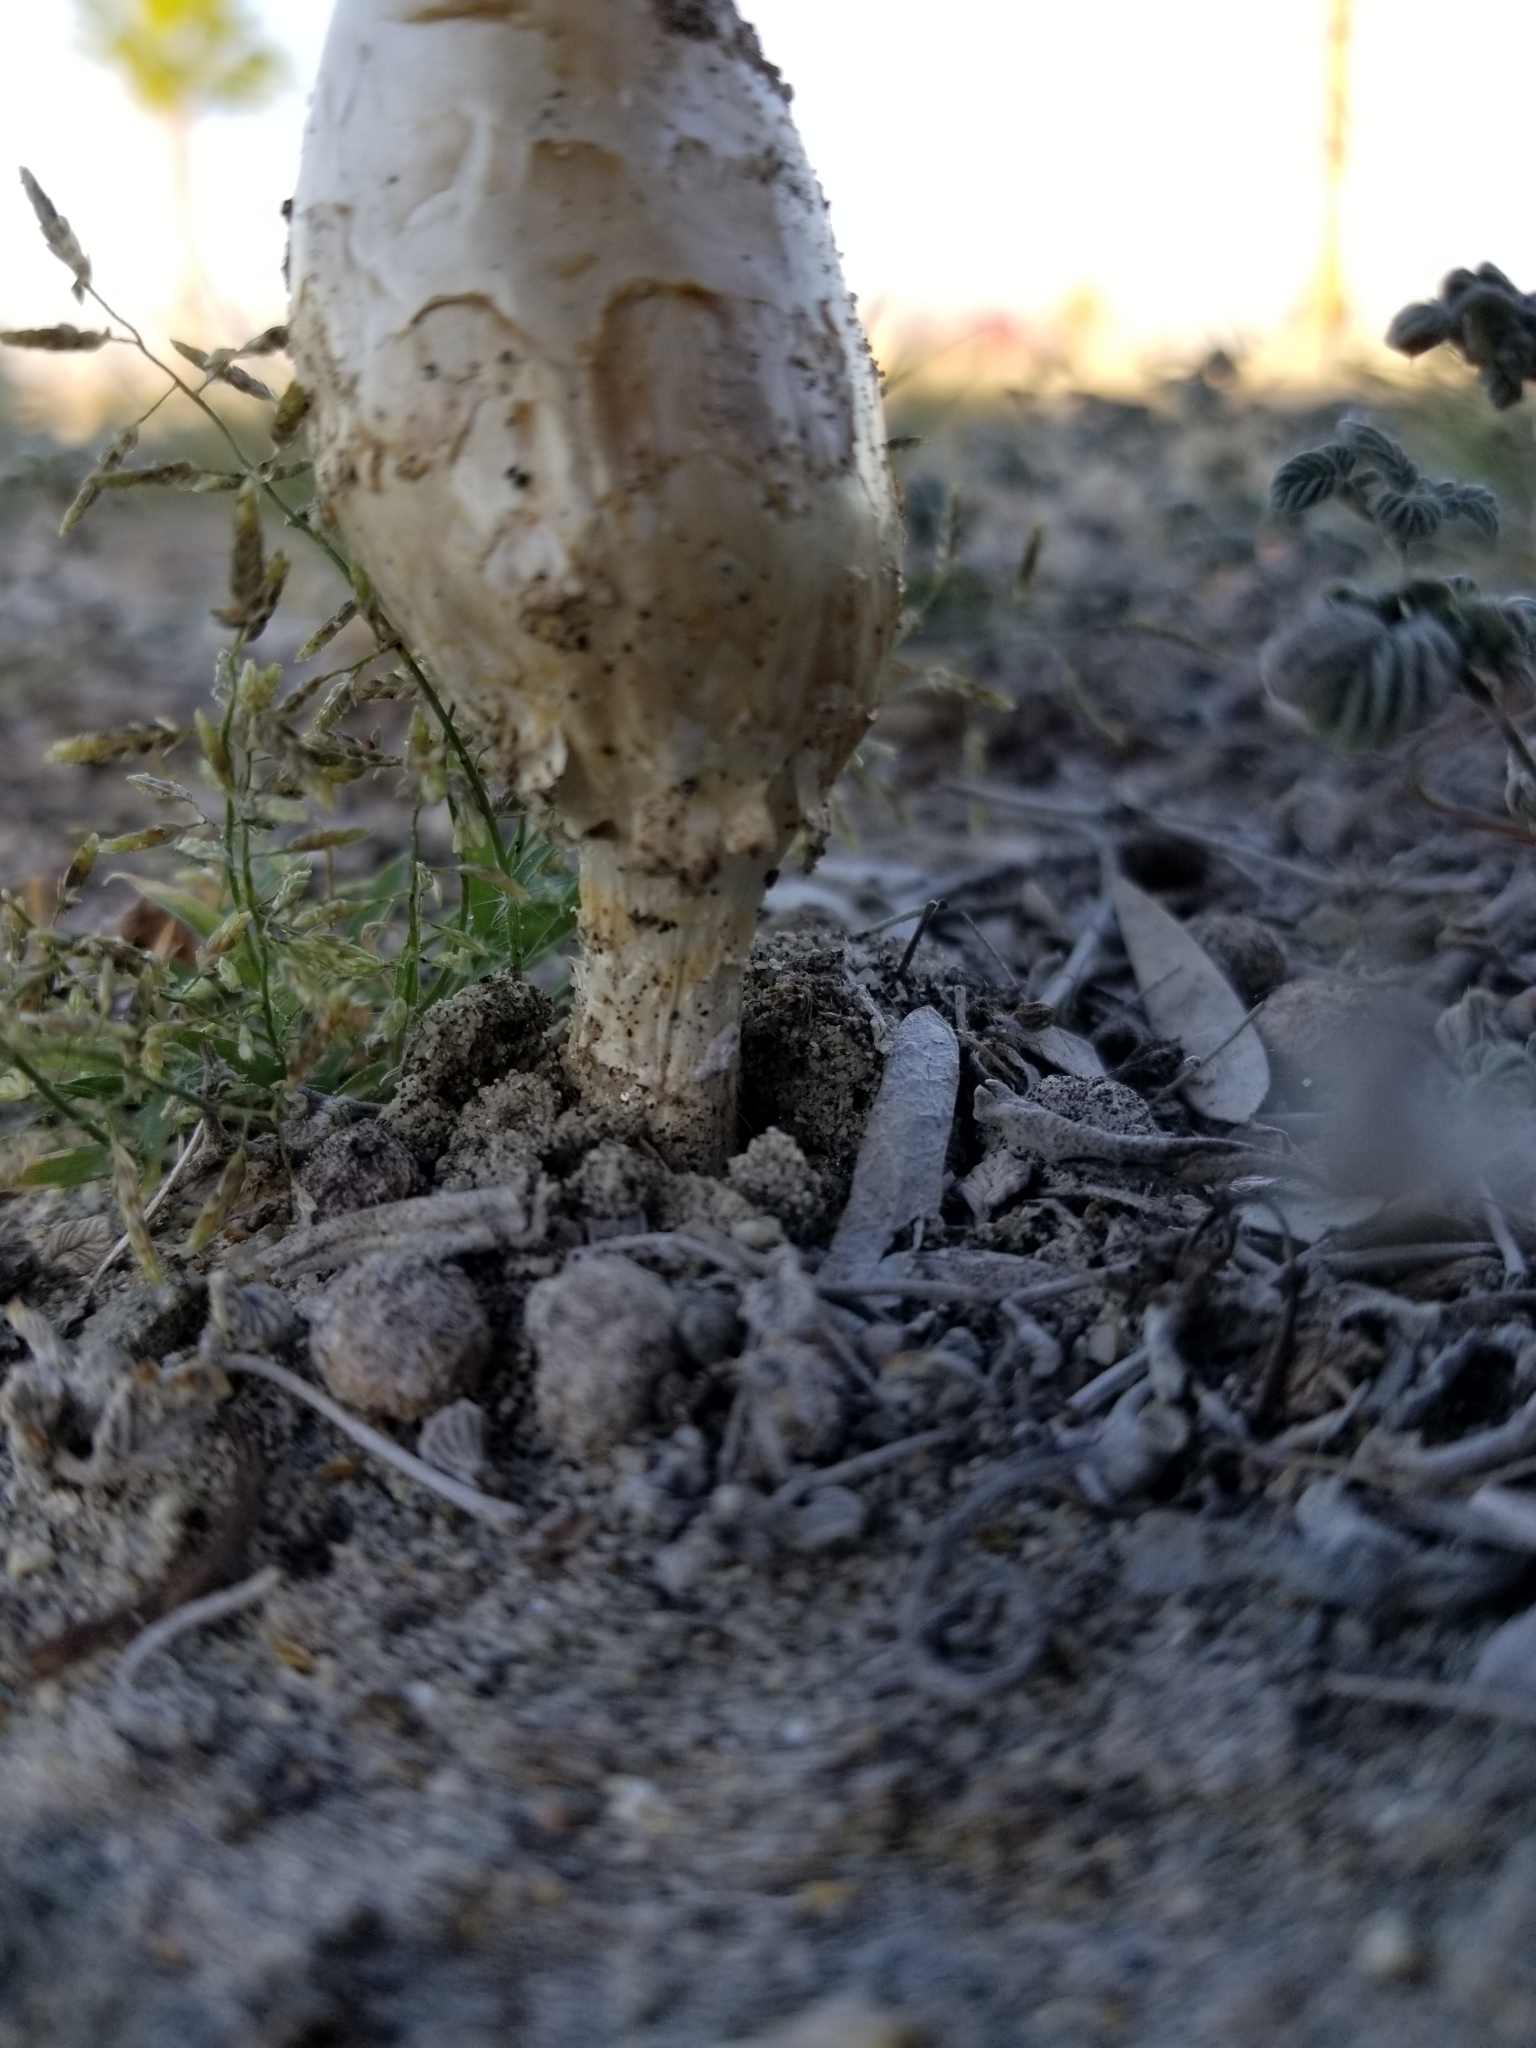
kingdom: Fungi
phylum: Basidiomycota
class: Agaricomycetes
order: Agaricales
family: Agaricaceae
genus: Podaxis
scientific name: Podaxis pistillaris
